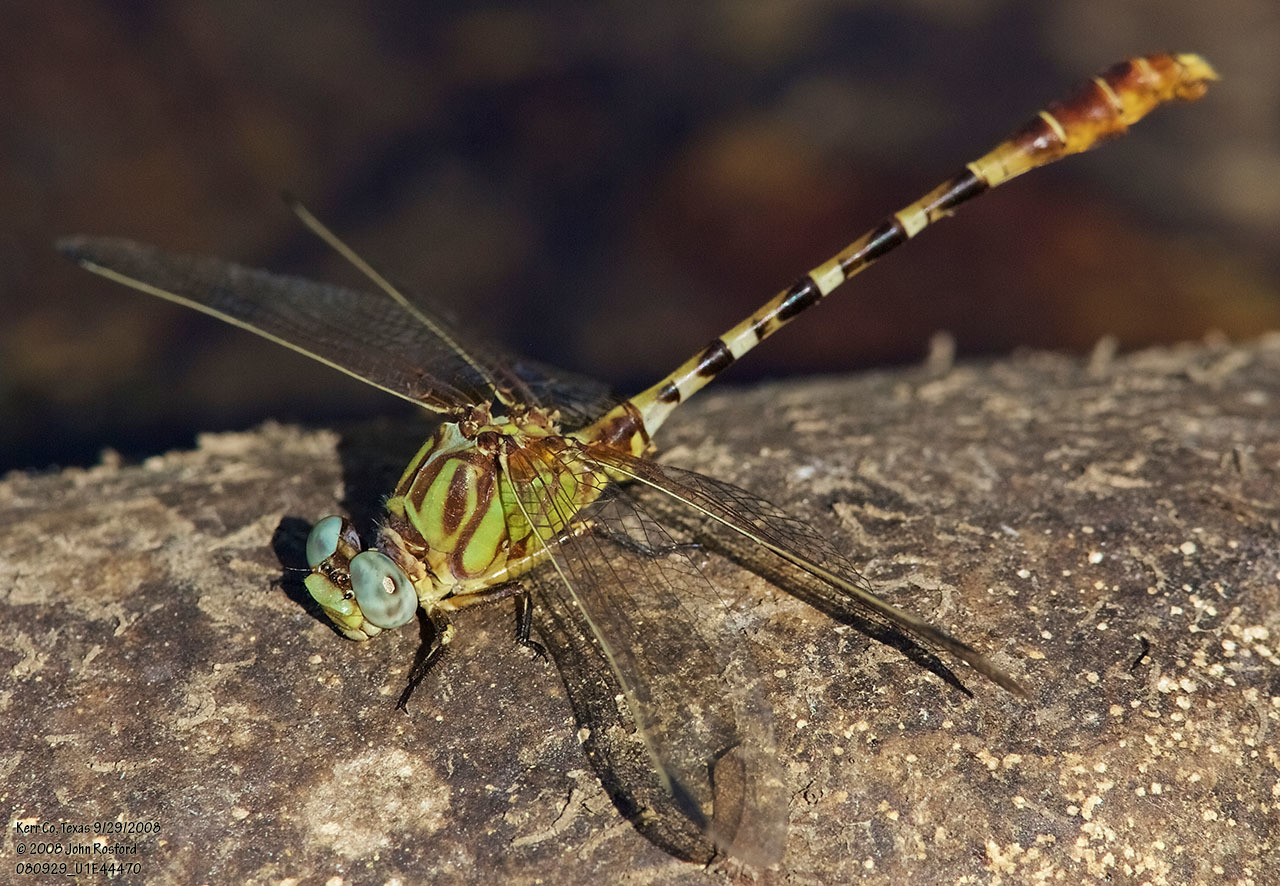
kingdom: Animalia
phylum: Arthropoda
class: Insecta
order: Odonata
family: Gomphidae
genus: Erpetogomphus
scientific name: Erpetogomphus designatus
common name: Eastern ringtail
